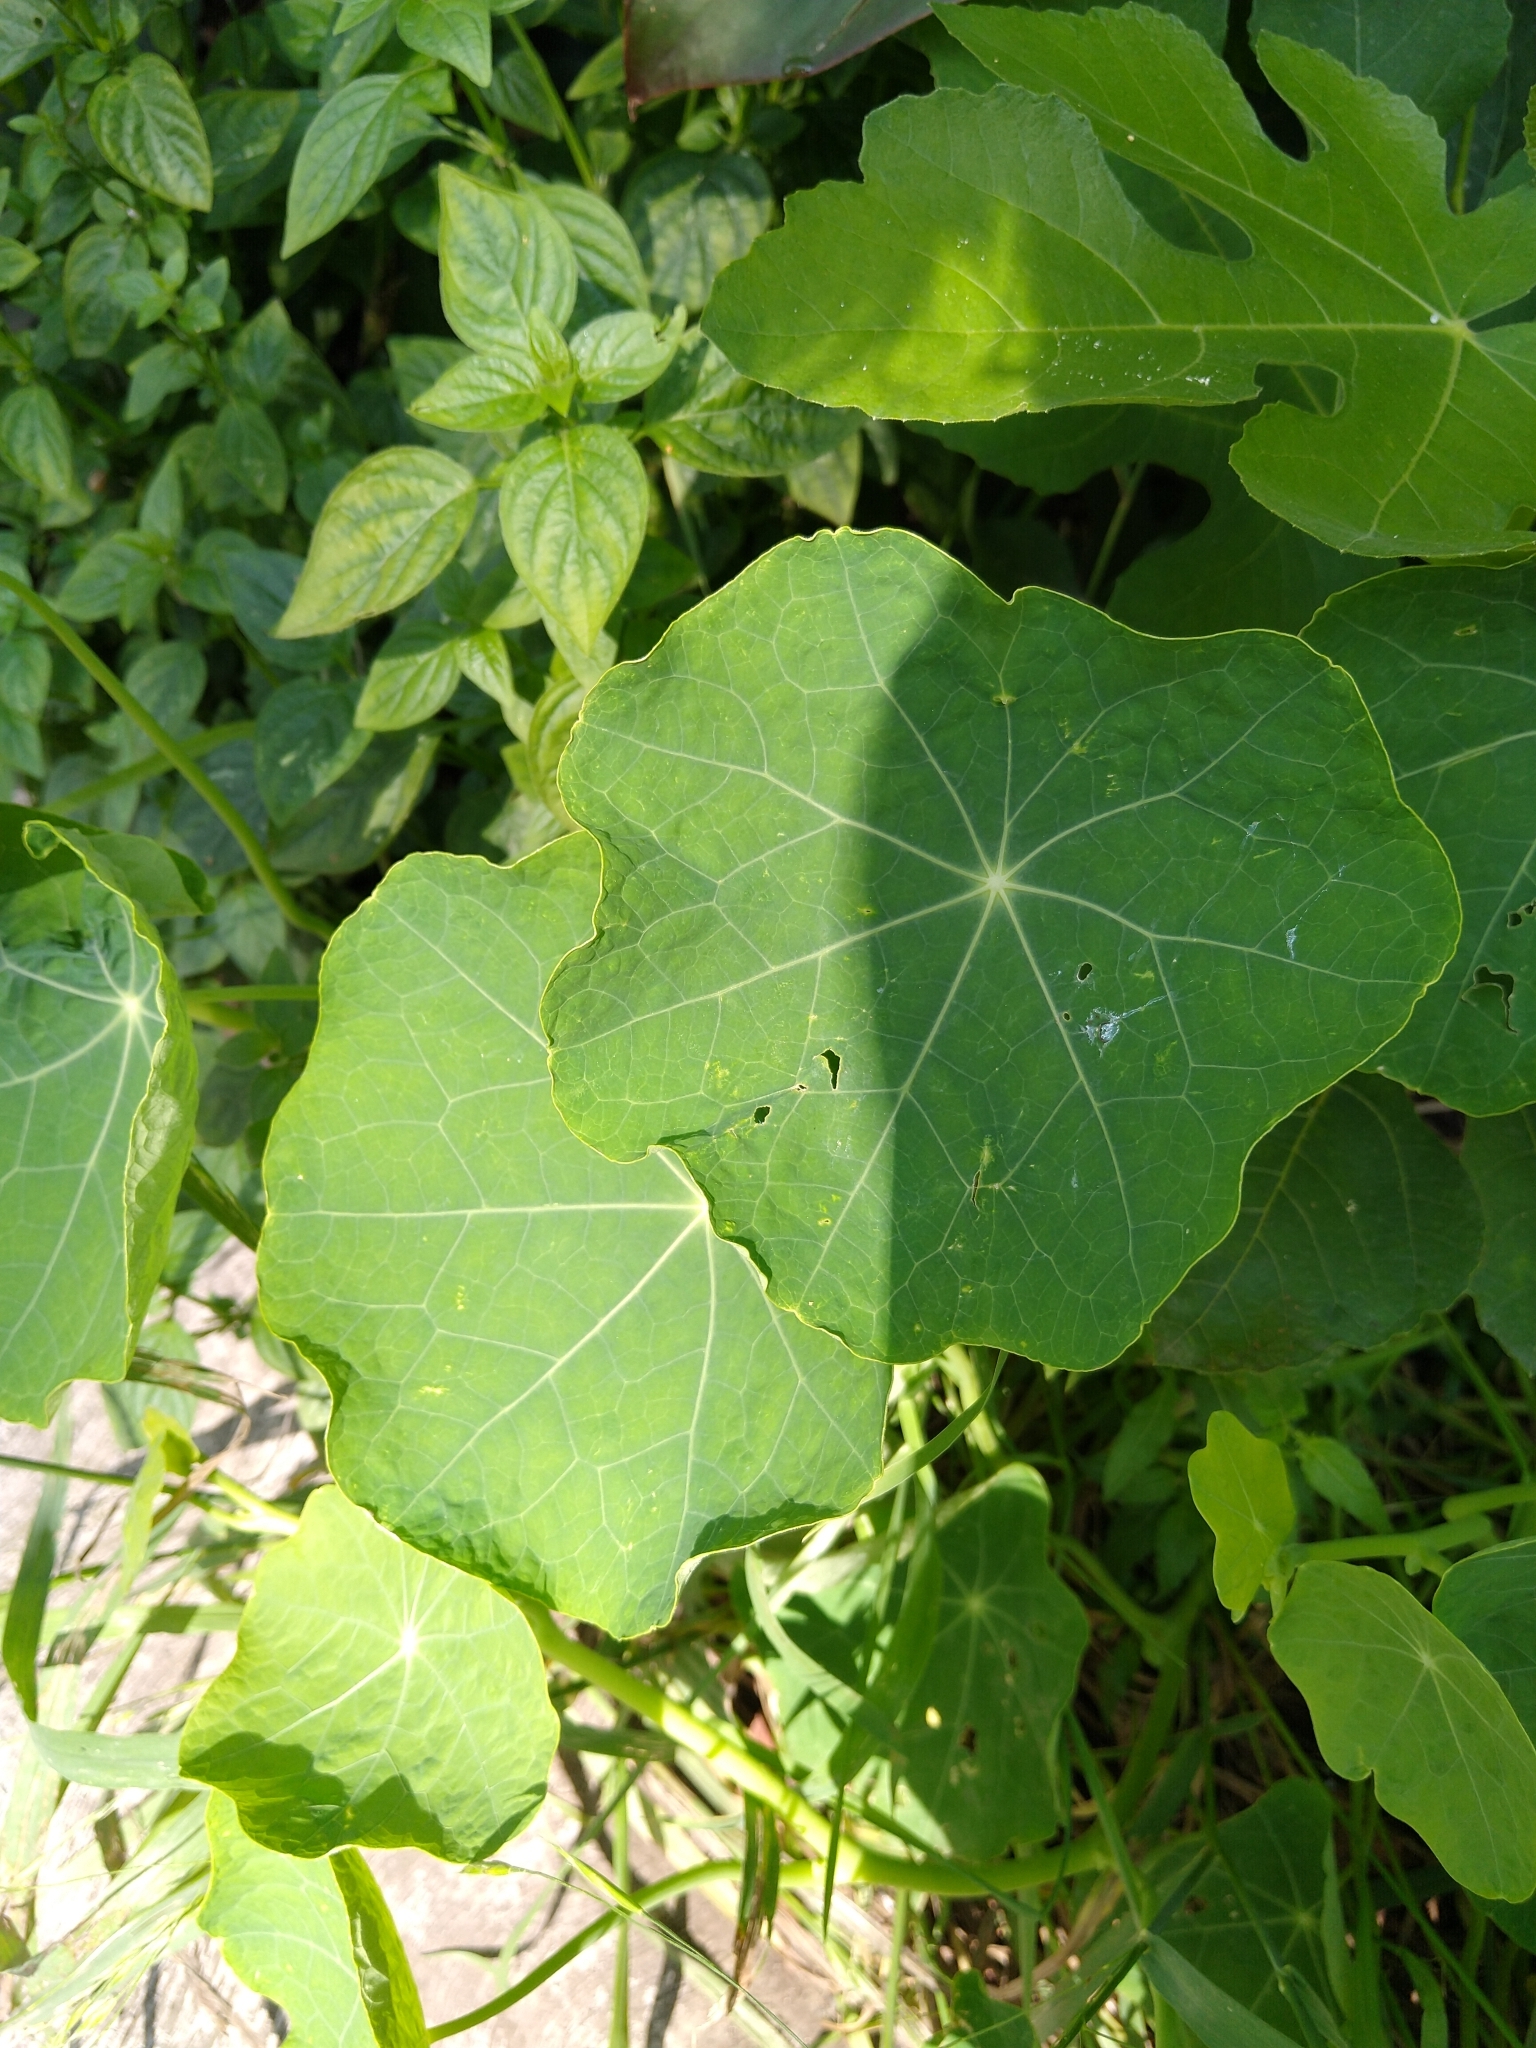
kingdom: Plantae
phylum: Tracheophyta
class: Magnoliopsida
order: Brassicales
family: Tropaeolaceae
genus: Tropaeolum
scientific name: Tropaeolum majus
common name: Nasturtium
